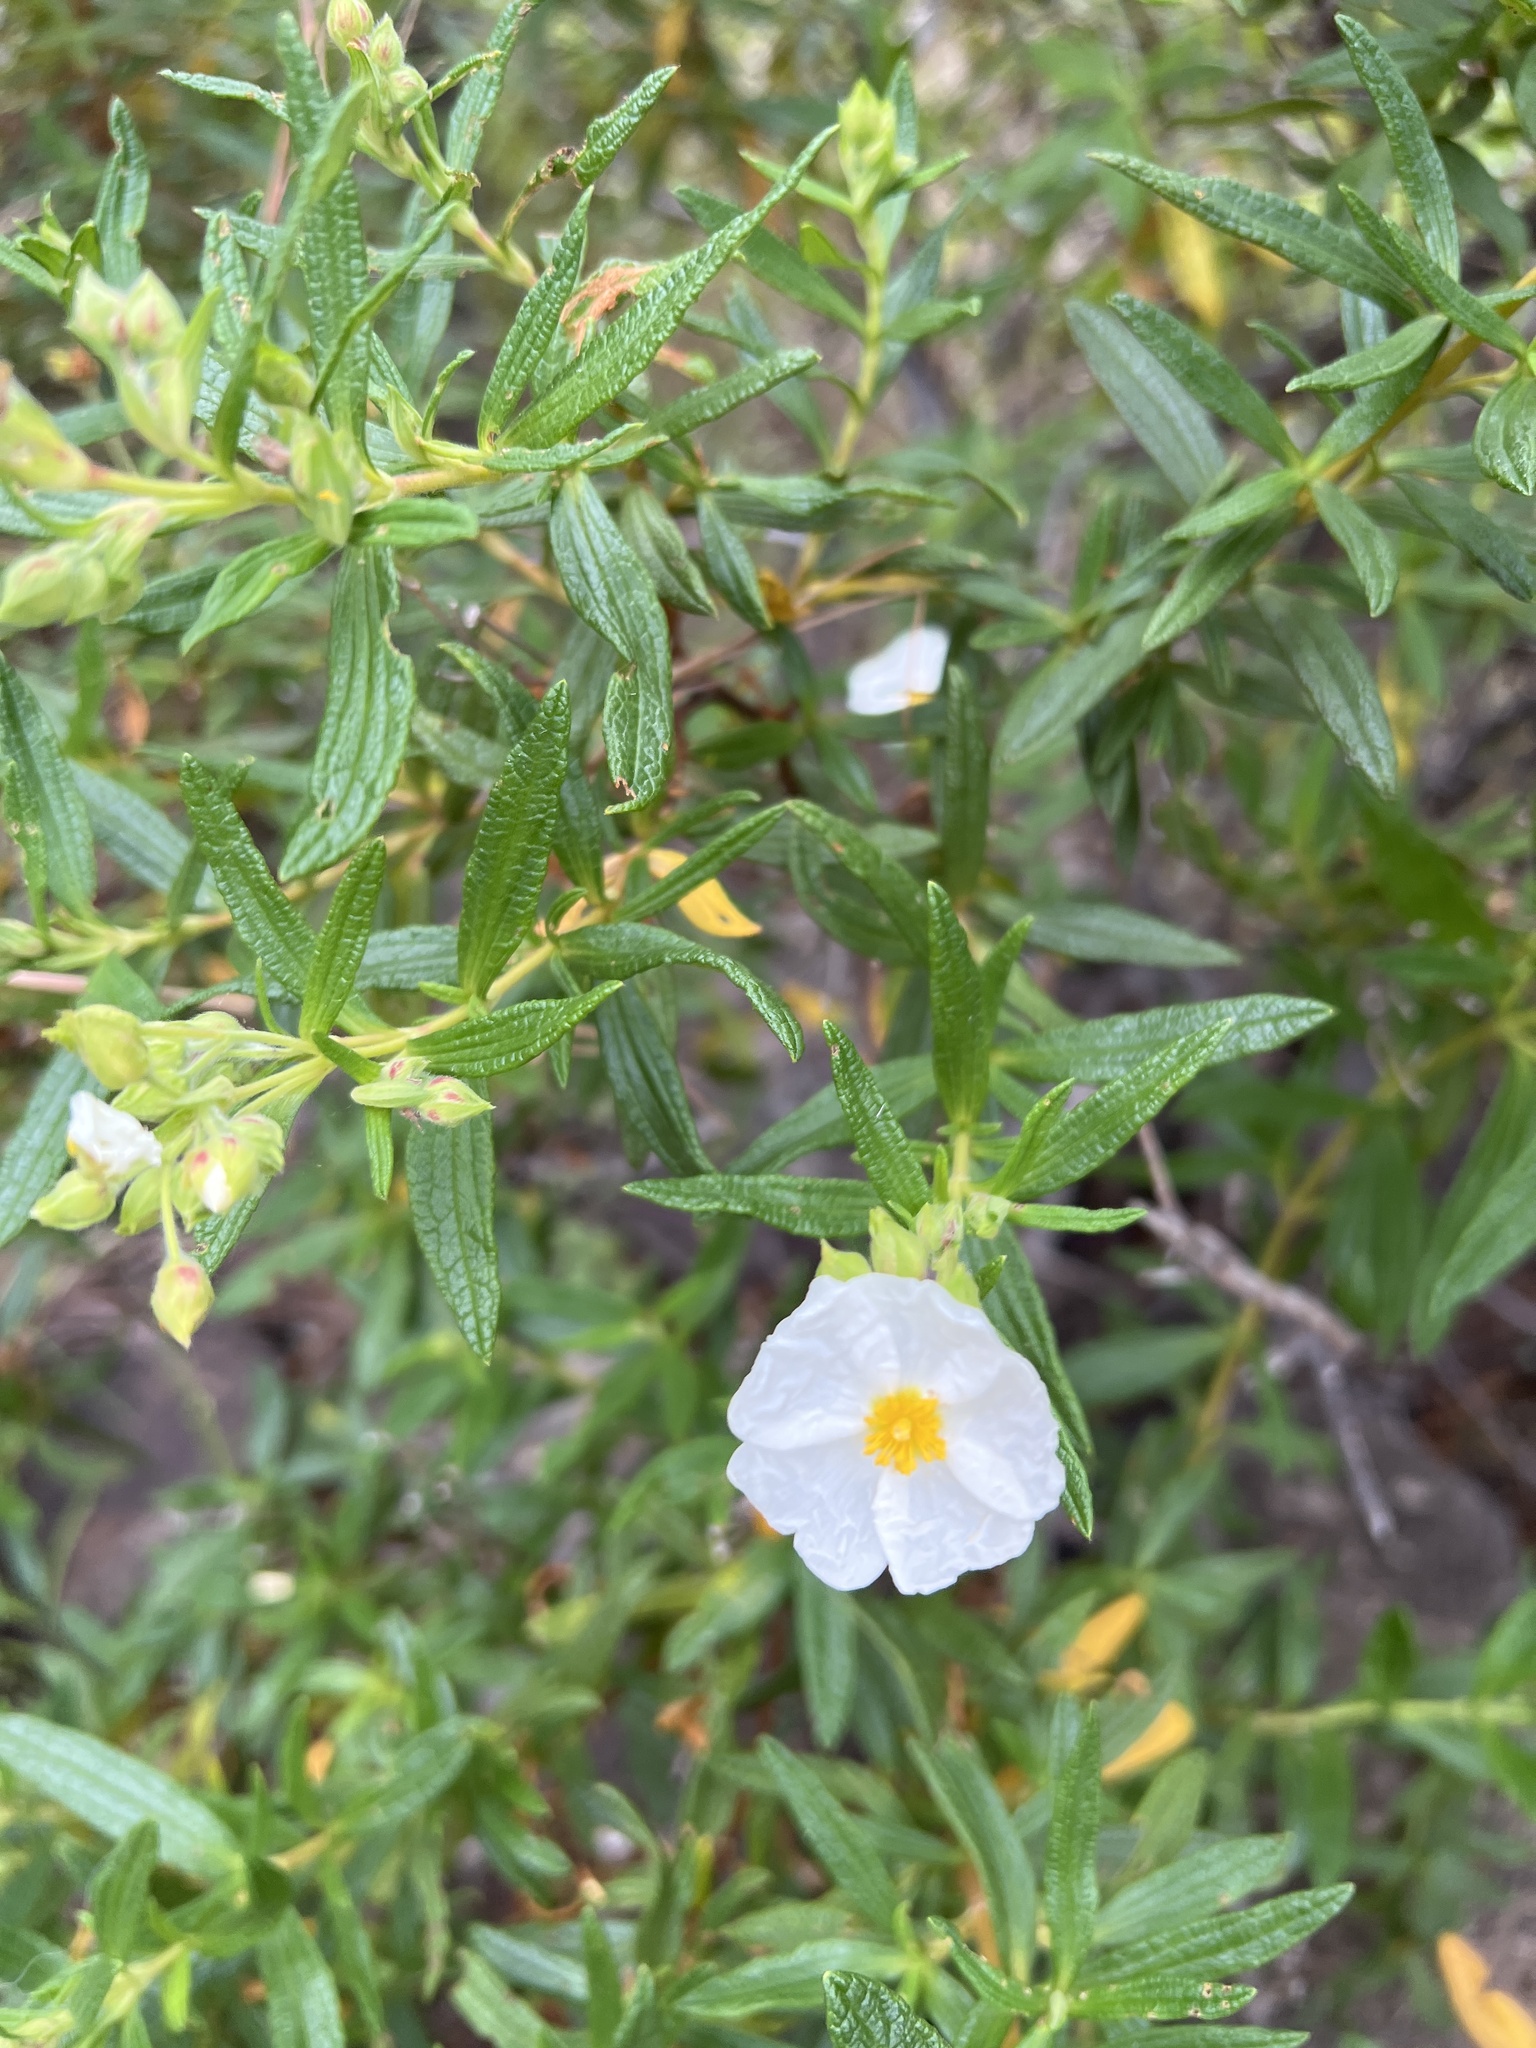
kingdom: Plantae
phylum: Tracheophyta
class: Magnoliopsida
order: Malvales
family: Cistaceae
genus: Cistus
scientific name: Cistus monspeliensis
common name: Montpelier cistus
